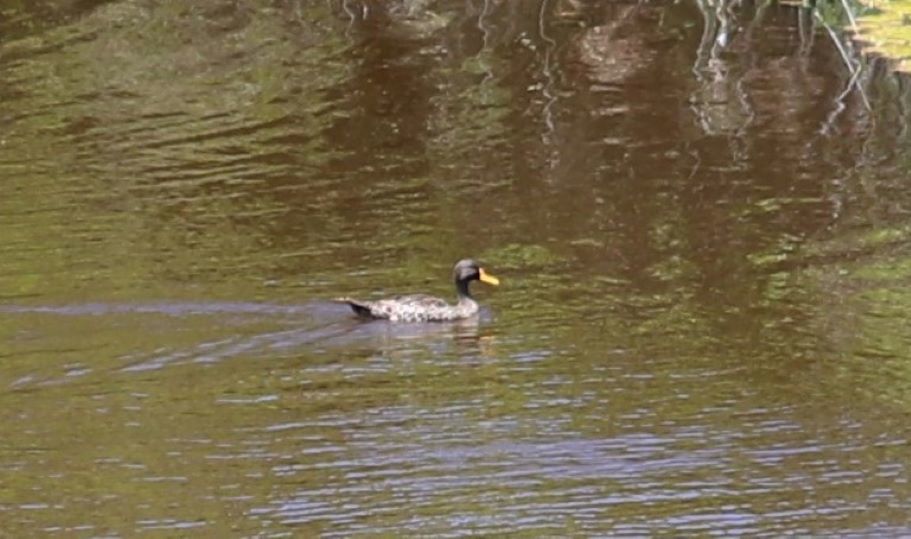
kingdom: Animalia
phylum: Chordata
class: Aves
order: Anseriformes
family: Anatidae
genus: Anas
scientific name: Anas undulata
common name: Yellow-billed duck
